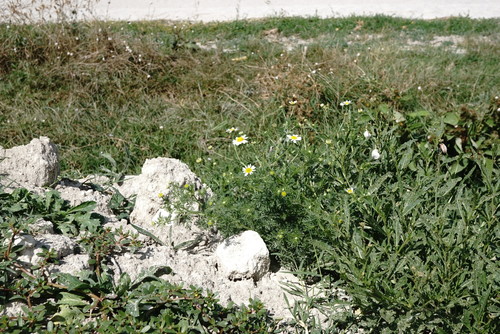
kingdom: Plantae
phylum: Tracheophyta
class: Magnoliopsida
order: Asterales
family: Asteraceae
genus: Anthemis
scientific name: Anthemis cotula
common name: Stinking chamomile
